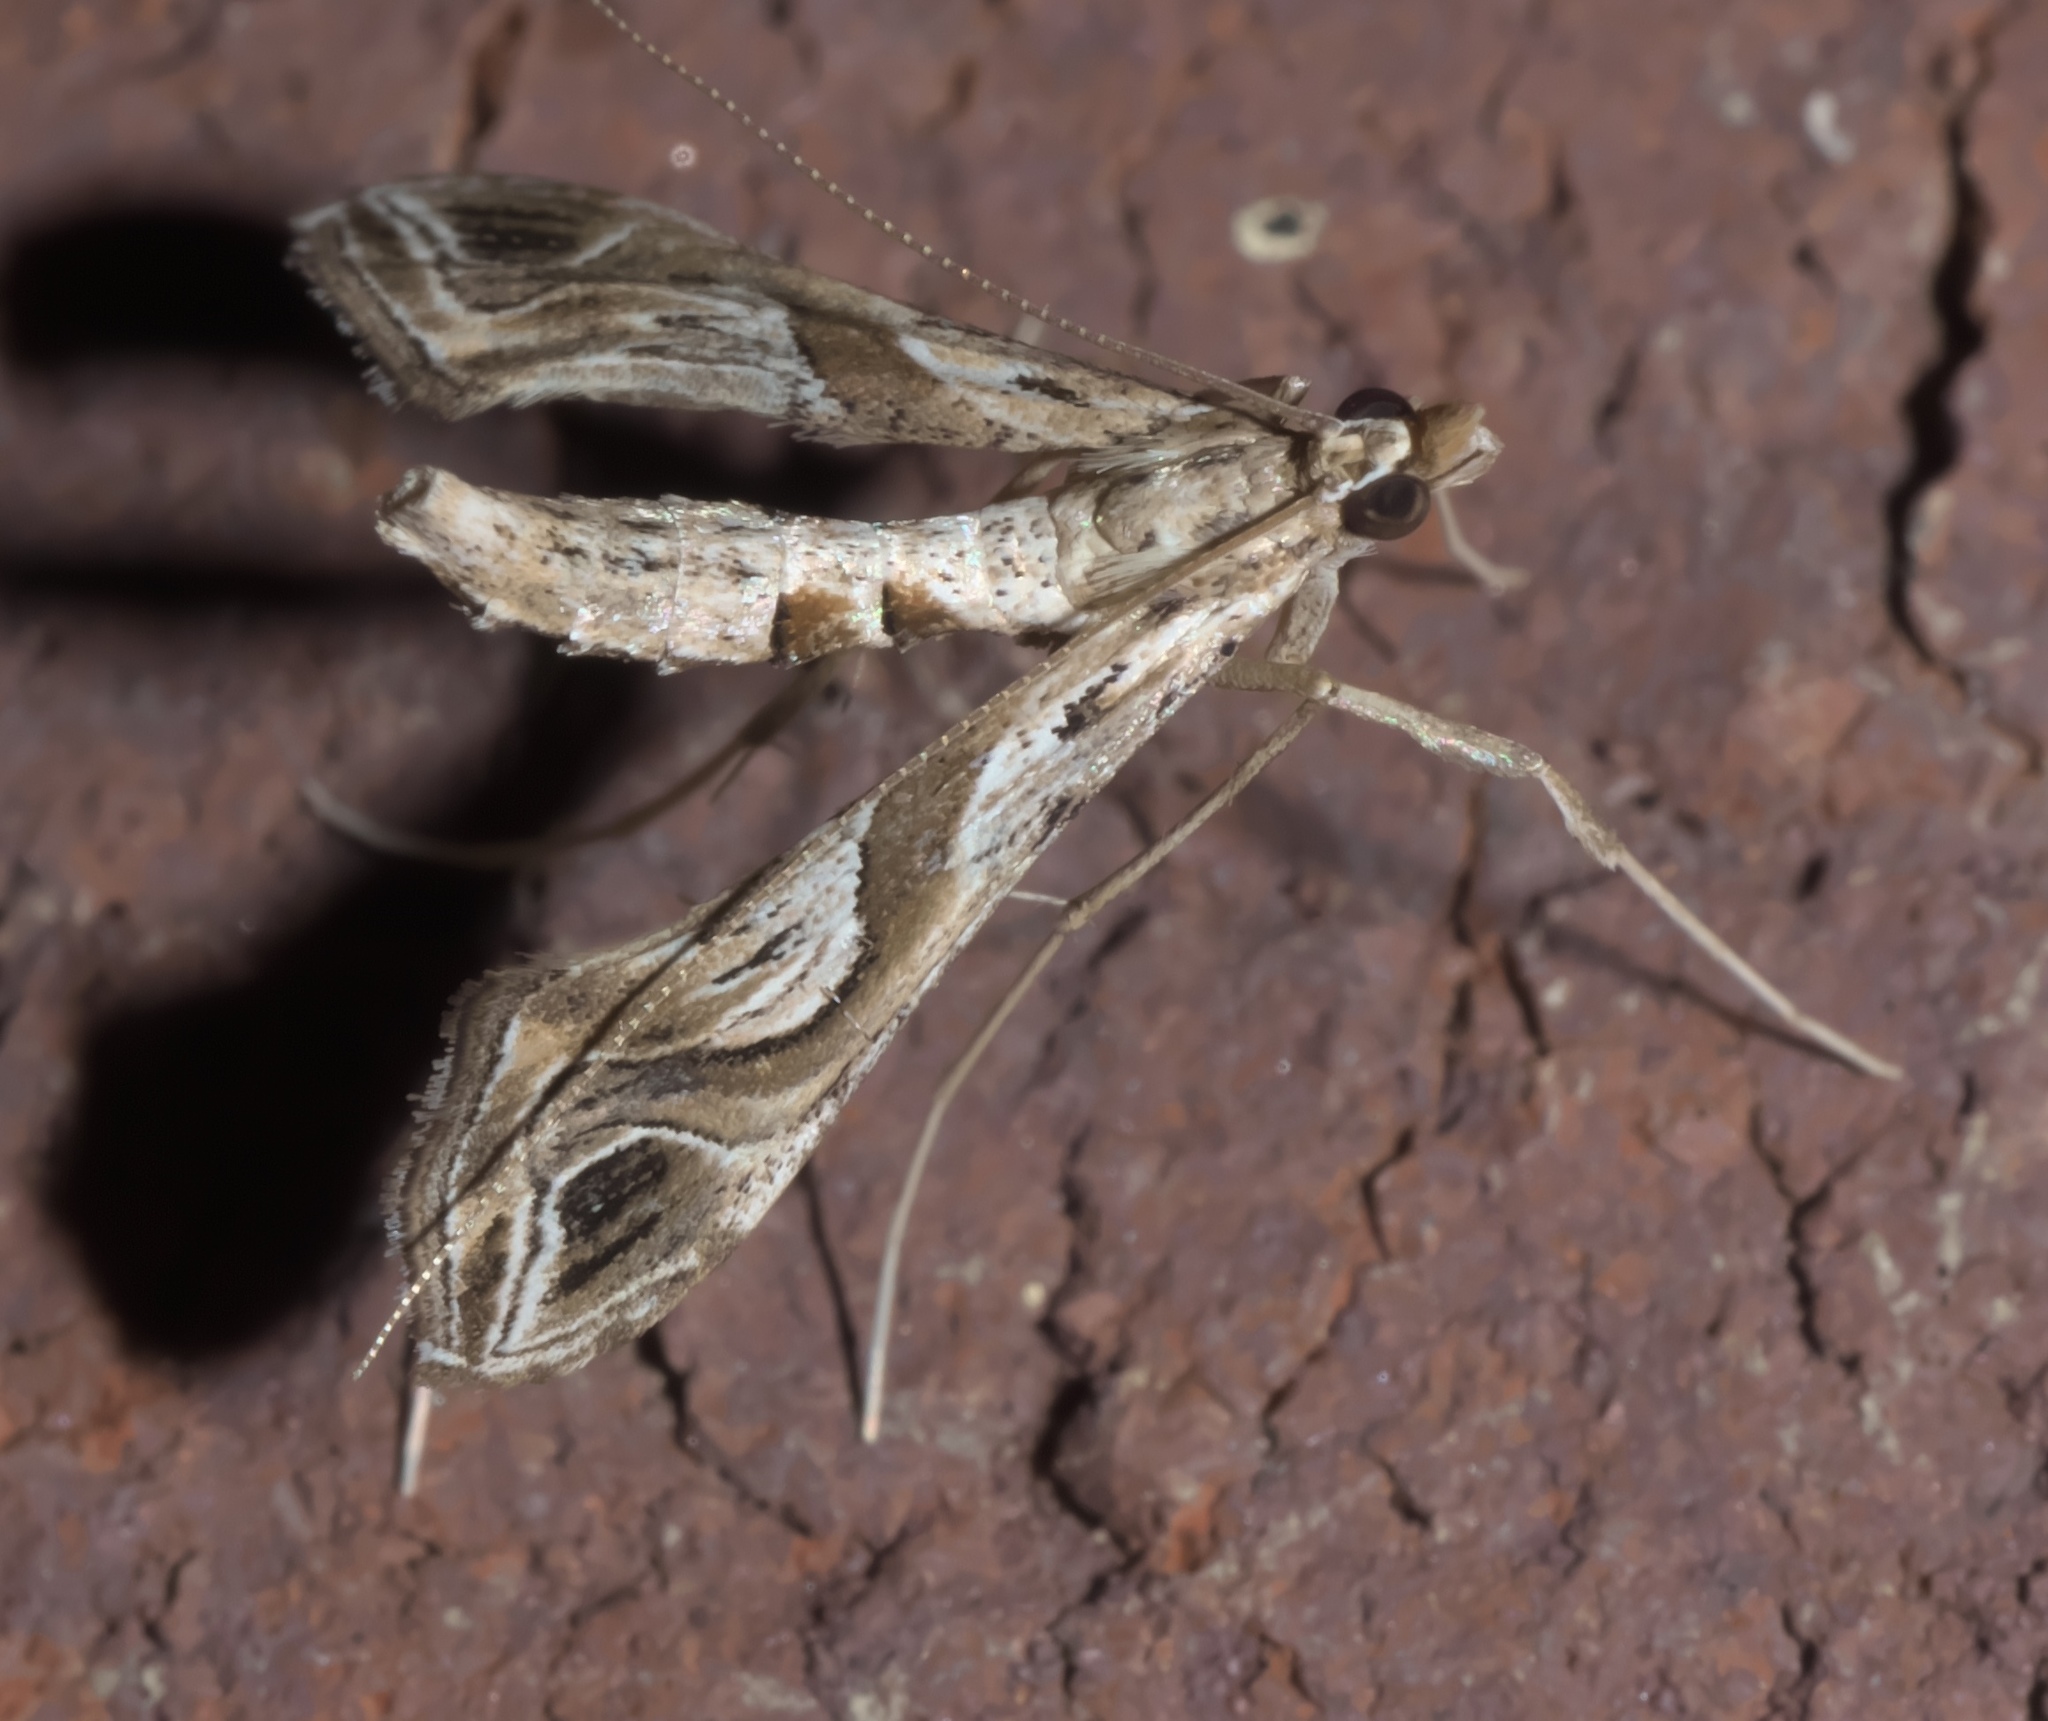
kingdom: Animalia
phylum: Arthropoda
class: Insecta
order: Lepidoptera
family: Crambidae
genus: Lineodes
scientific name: Lineodes integra
